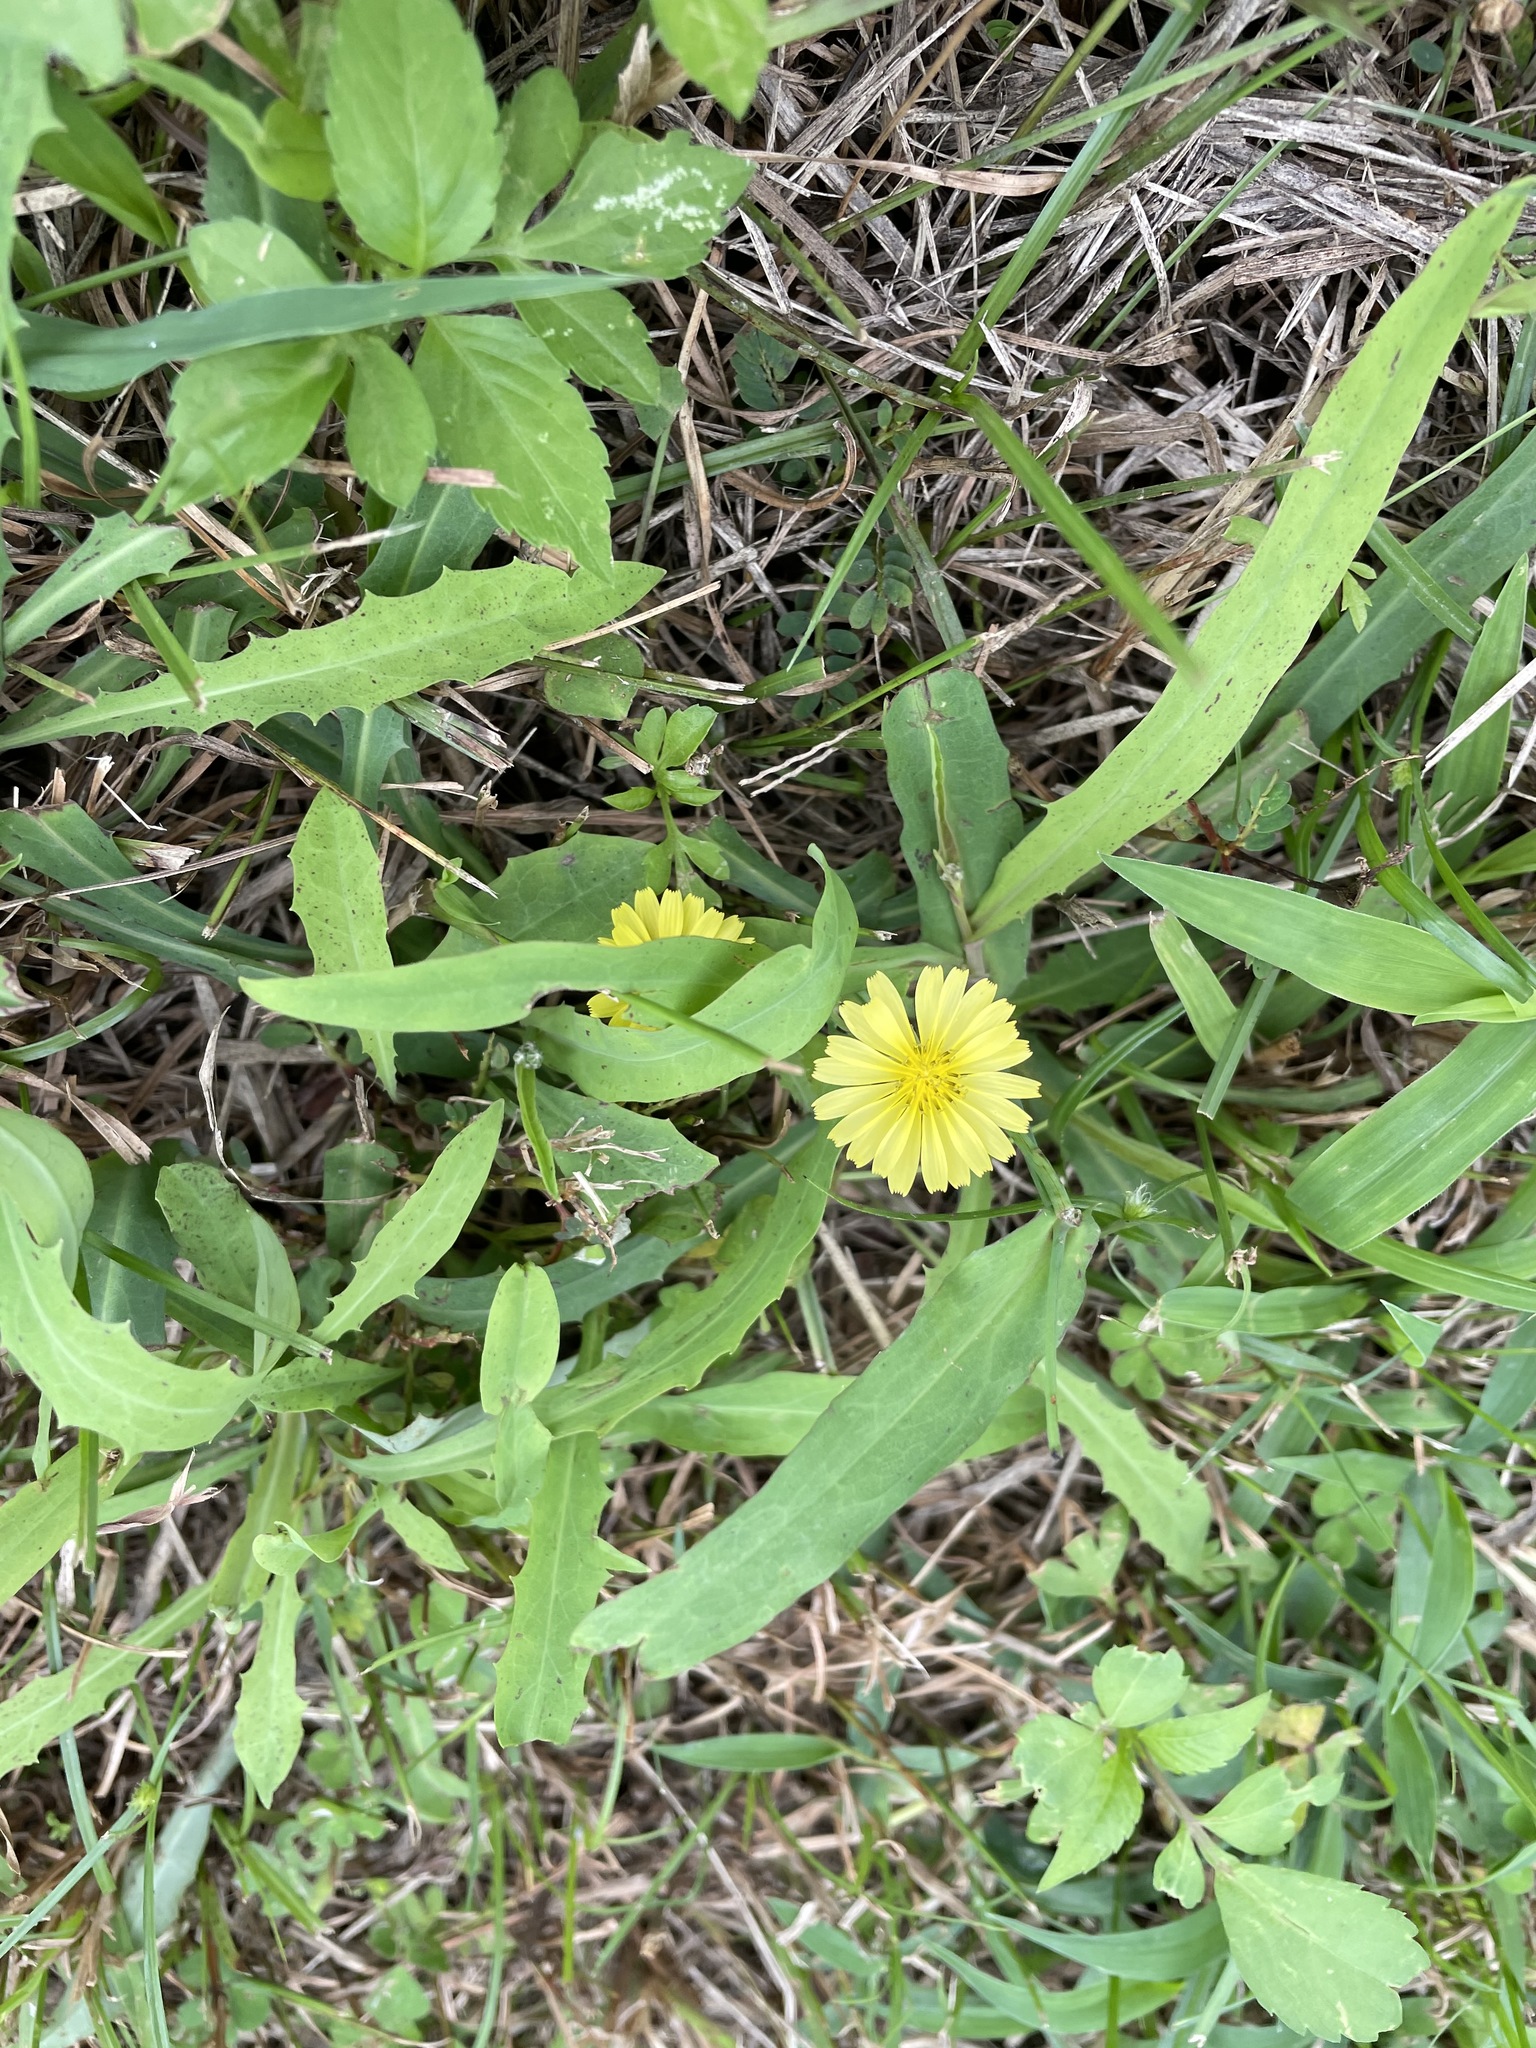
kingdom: Plantae
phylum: Tracheophyta
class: Magnoliopsida
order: Asterales
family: Asteraceae
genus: Ixeris
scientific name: Ixeris chinensis
